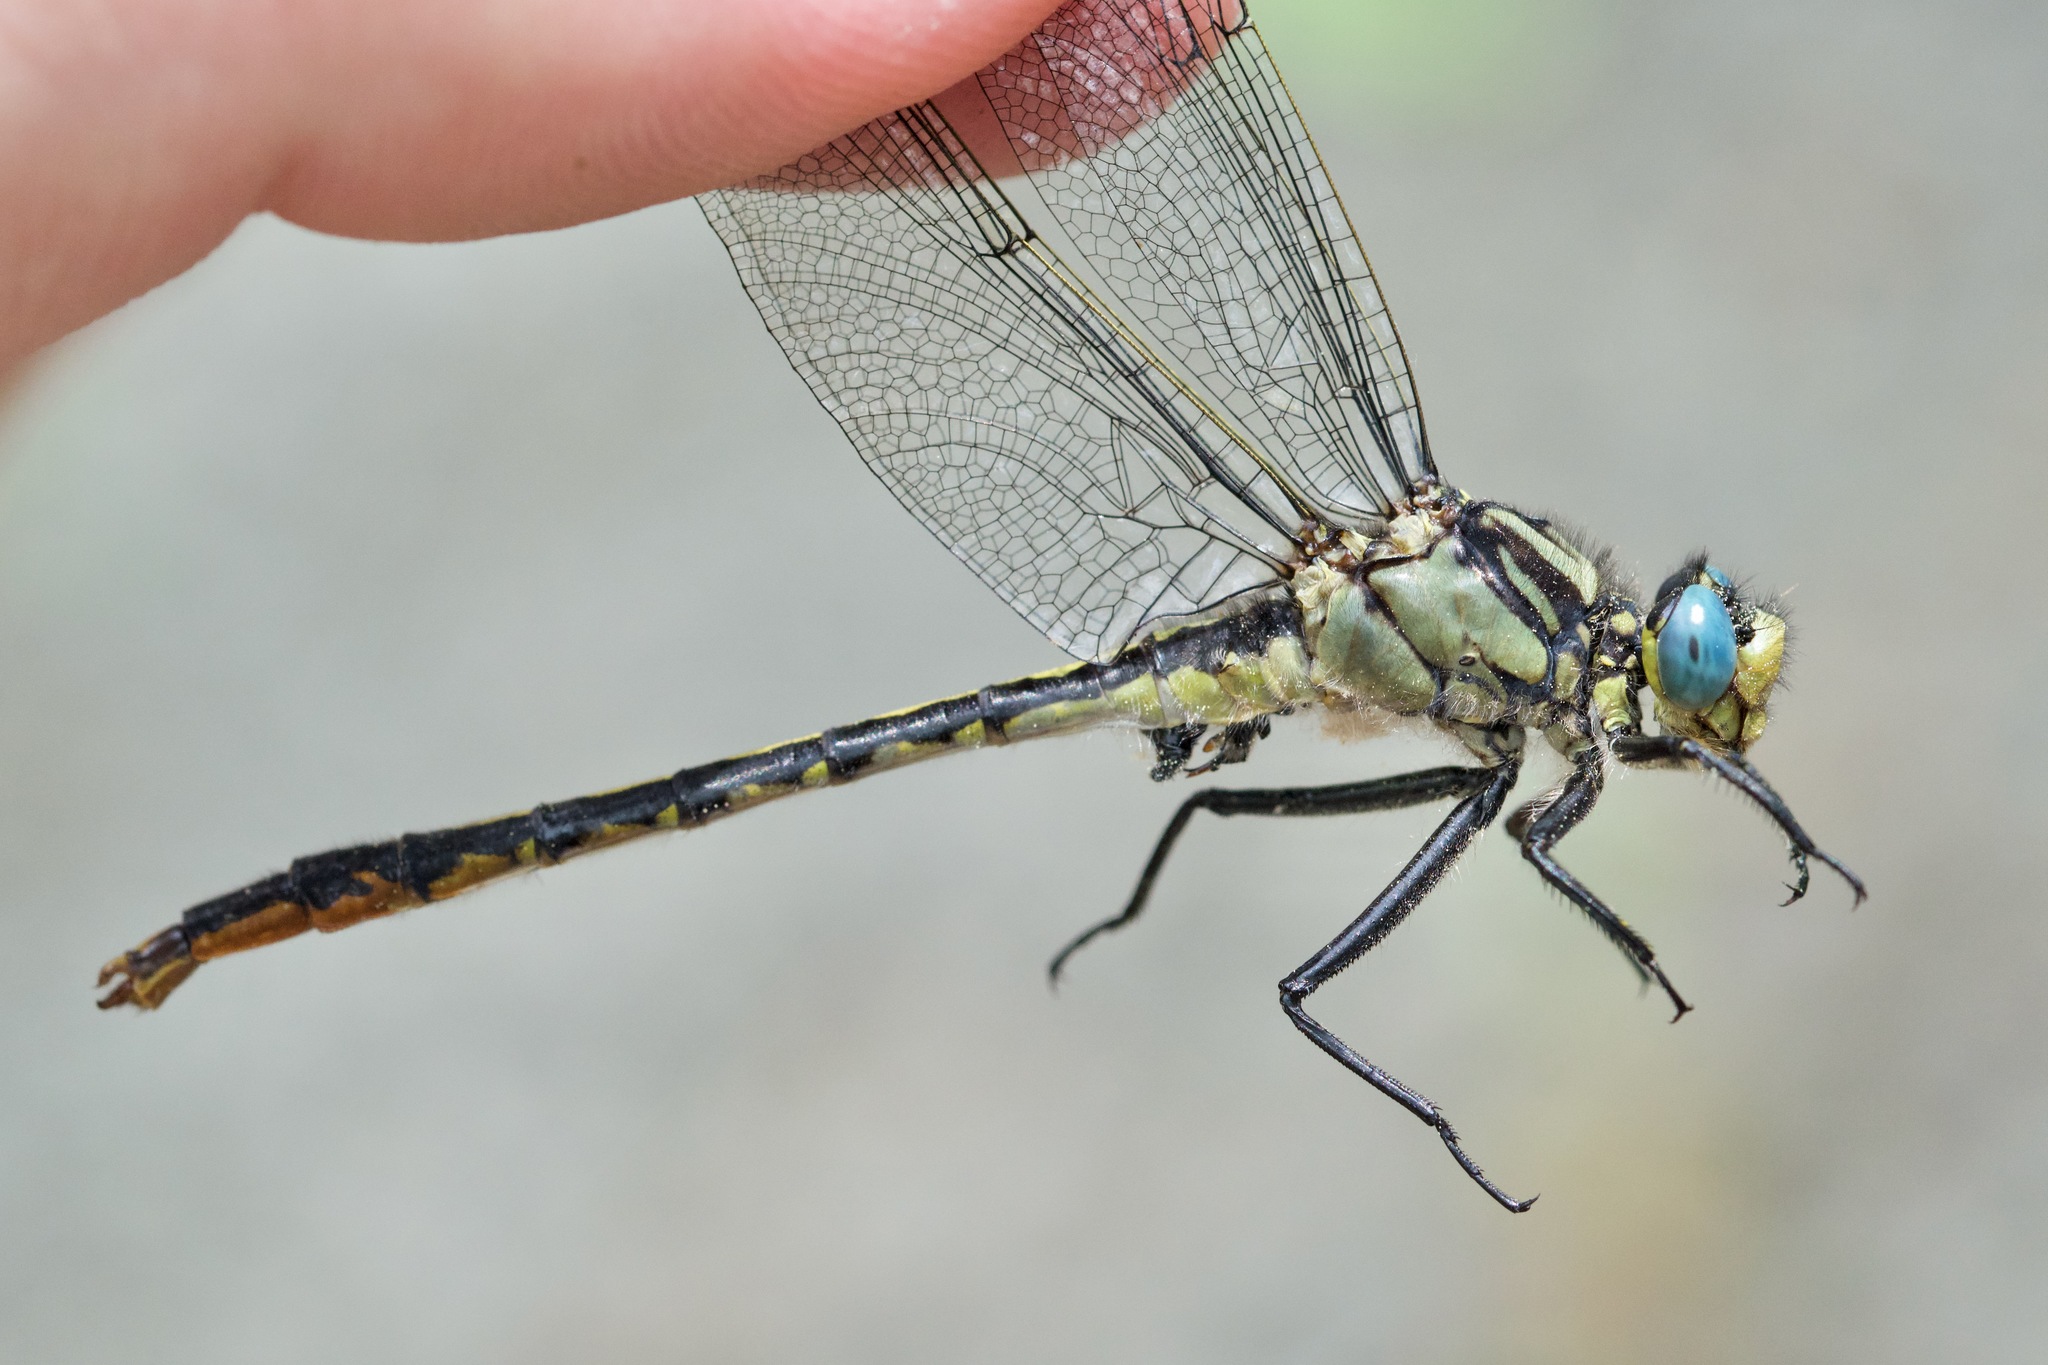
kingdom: Animalia
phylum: Arthropoda
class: Insecta
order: Odonata
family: Gomphidae
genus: Arigomphus
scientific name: Arigomphus furcifer
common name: Lilypad clubtail
